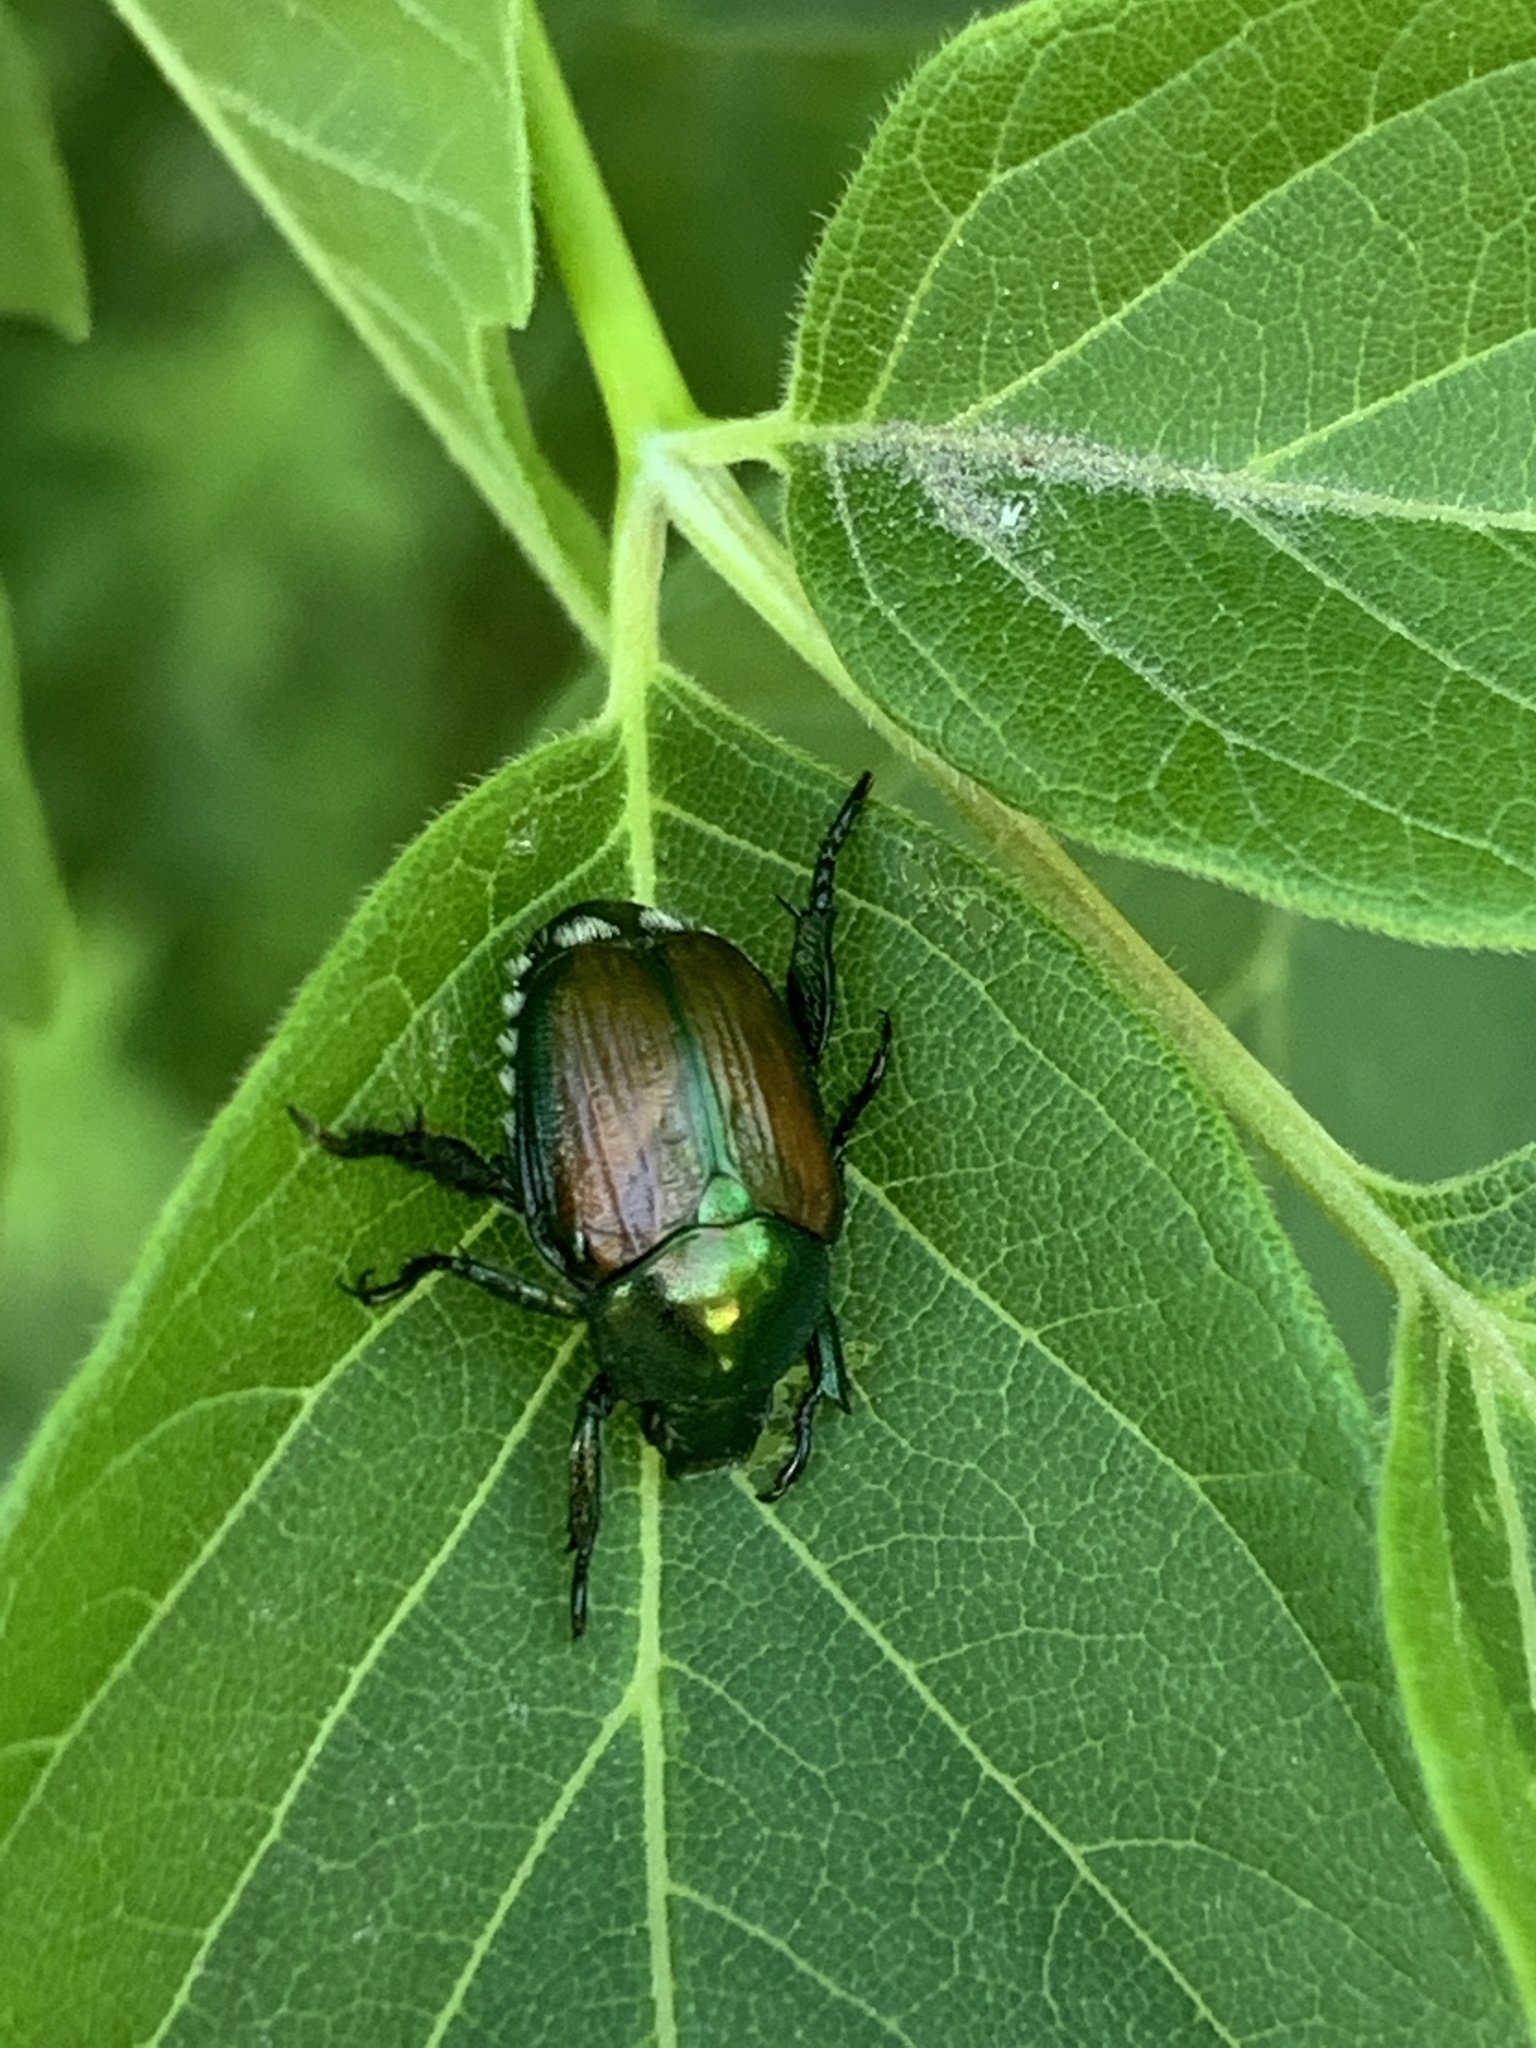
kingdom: Animalia
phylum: Arthropoda
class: Insecta
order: Coleoptera
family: Scarabaeidae
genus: Popillia
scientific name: Popillia japonica
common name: Japanese beetle
